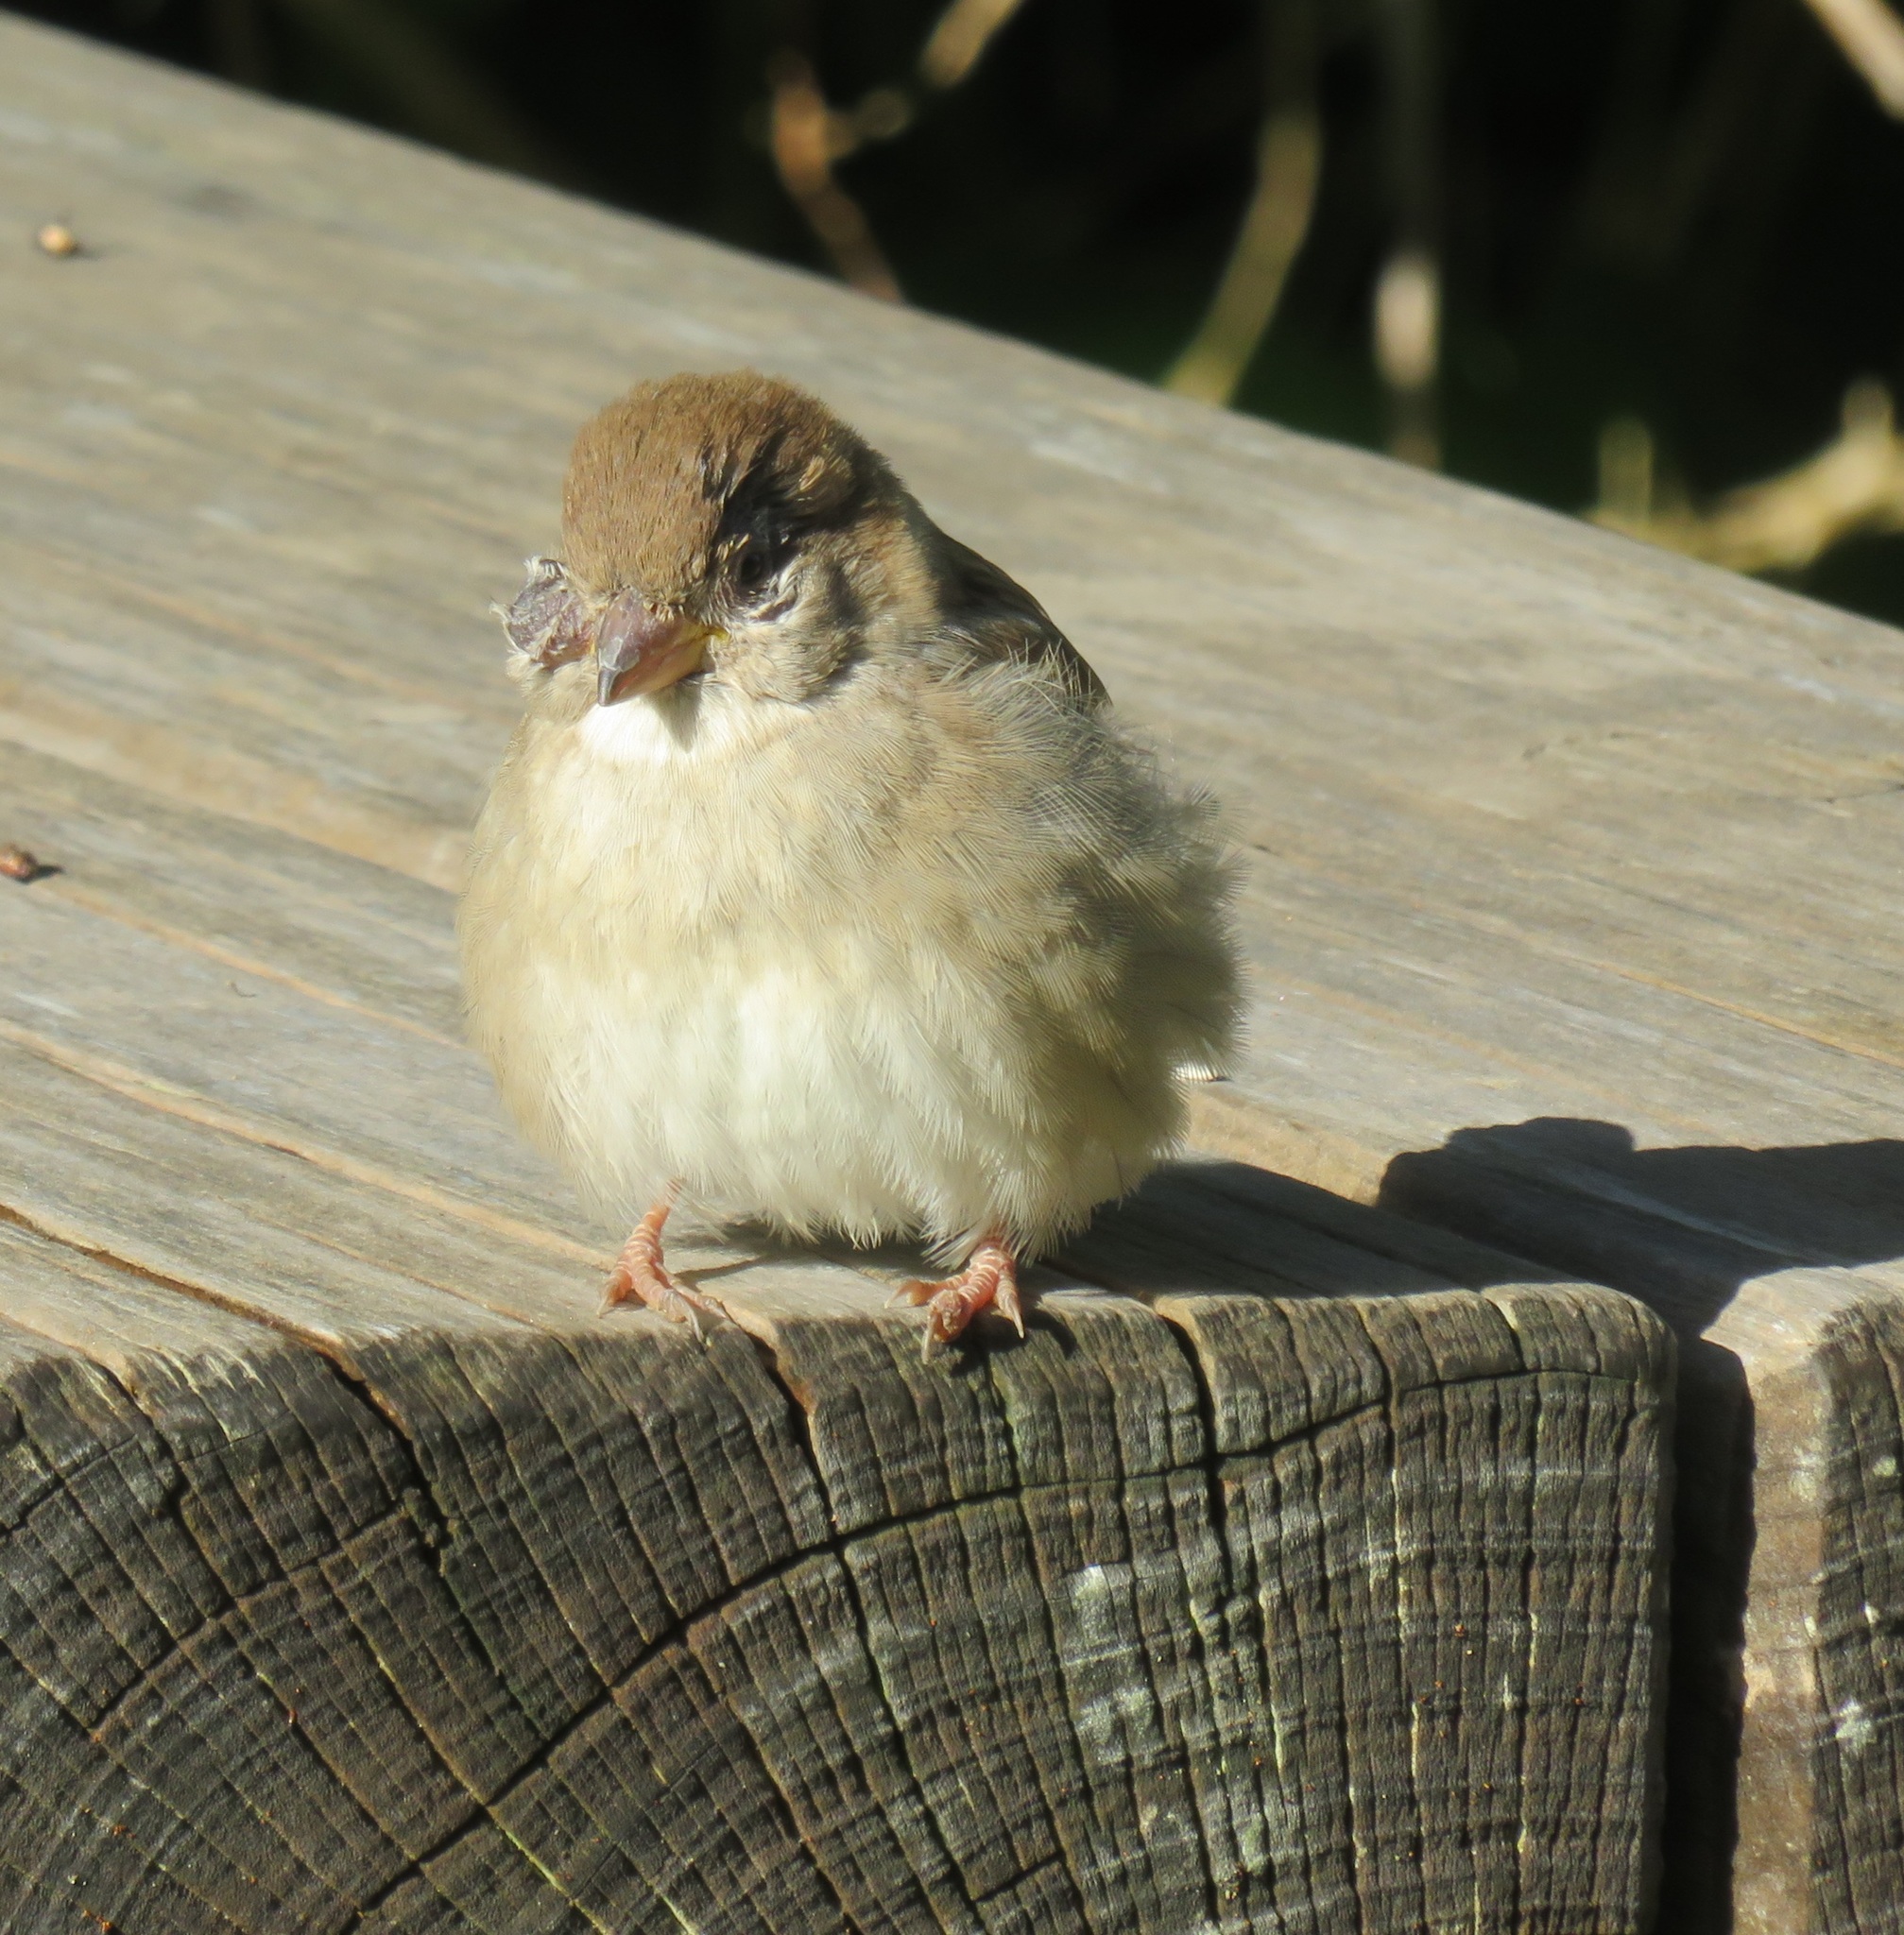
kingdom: Animalia
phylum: Chordata
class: Aves
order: Passeriformes
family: Passeridae
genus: Passer
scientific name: Passer domesticus
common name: House sparrow
